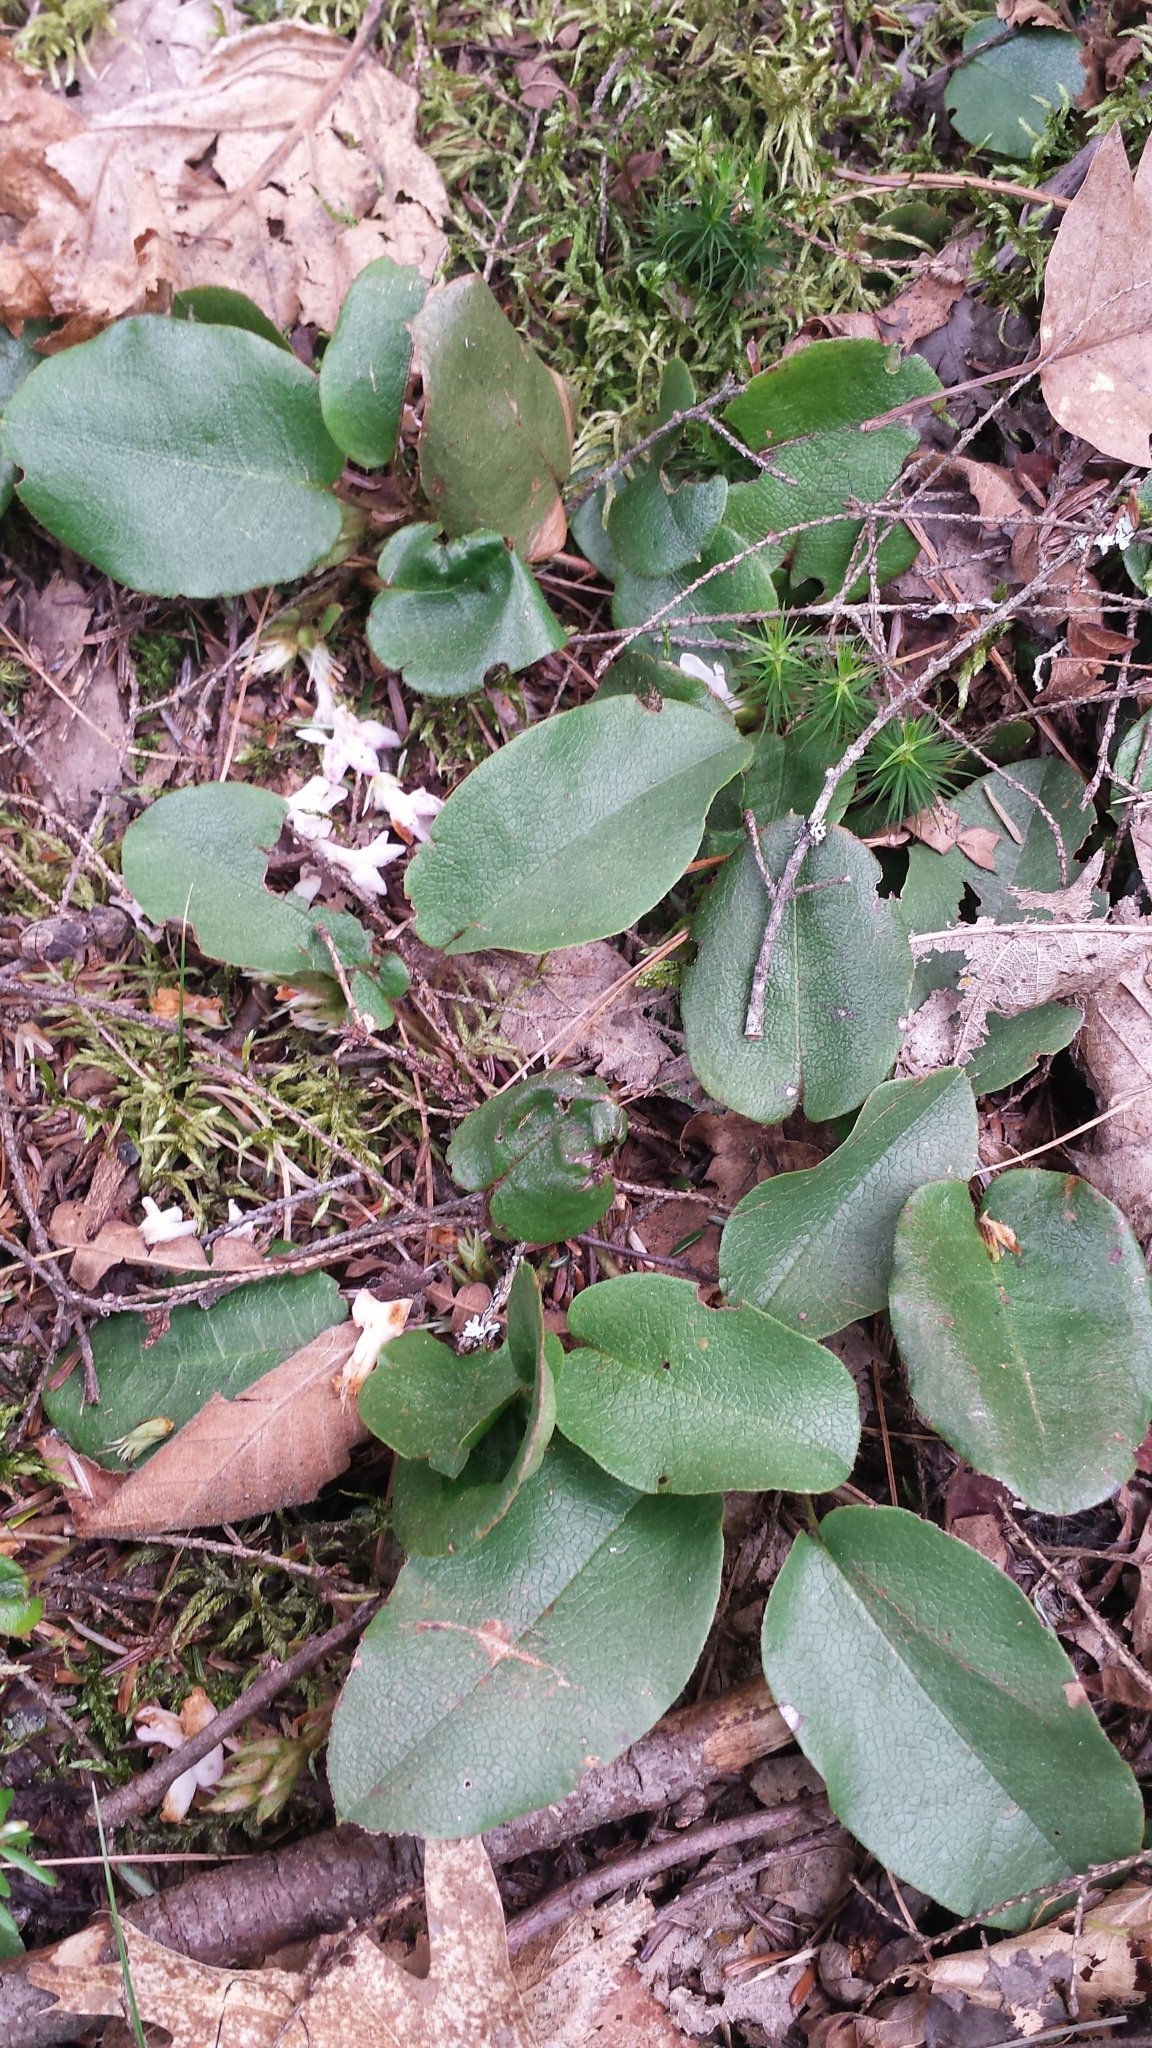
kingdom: Plantae
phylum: Tracheophyta
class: Magnoliopsida
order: Ericales
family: Ericaceae
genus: Epigaea
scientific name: Epigaea repens
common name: Gravelroot
